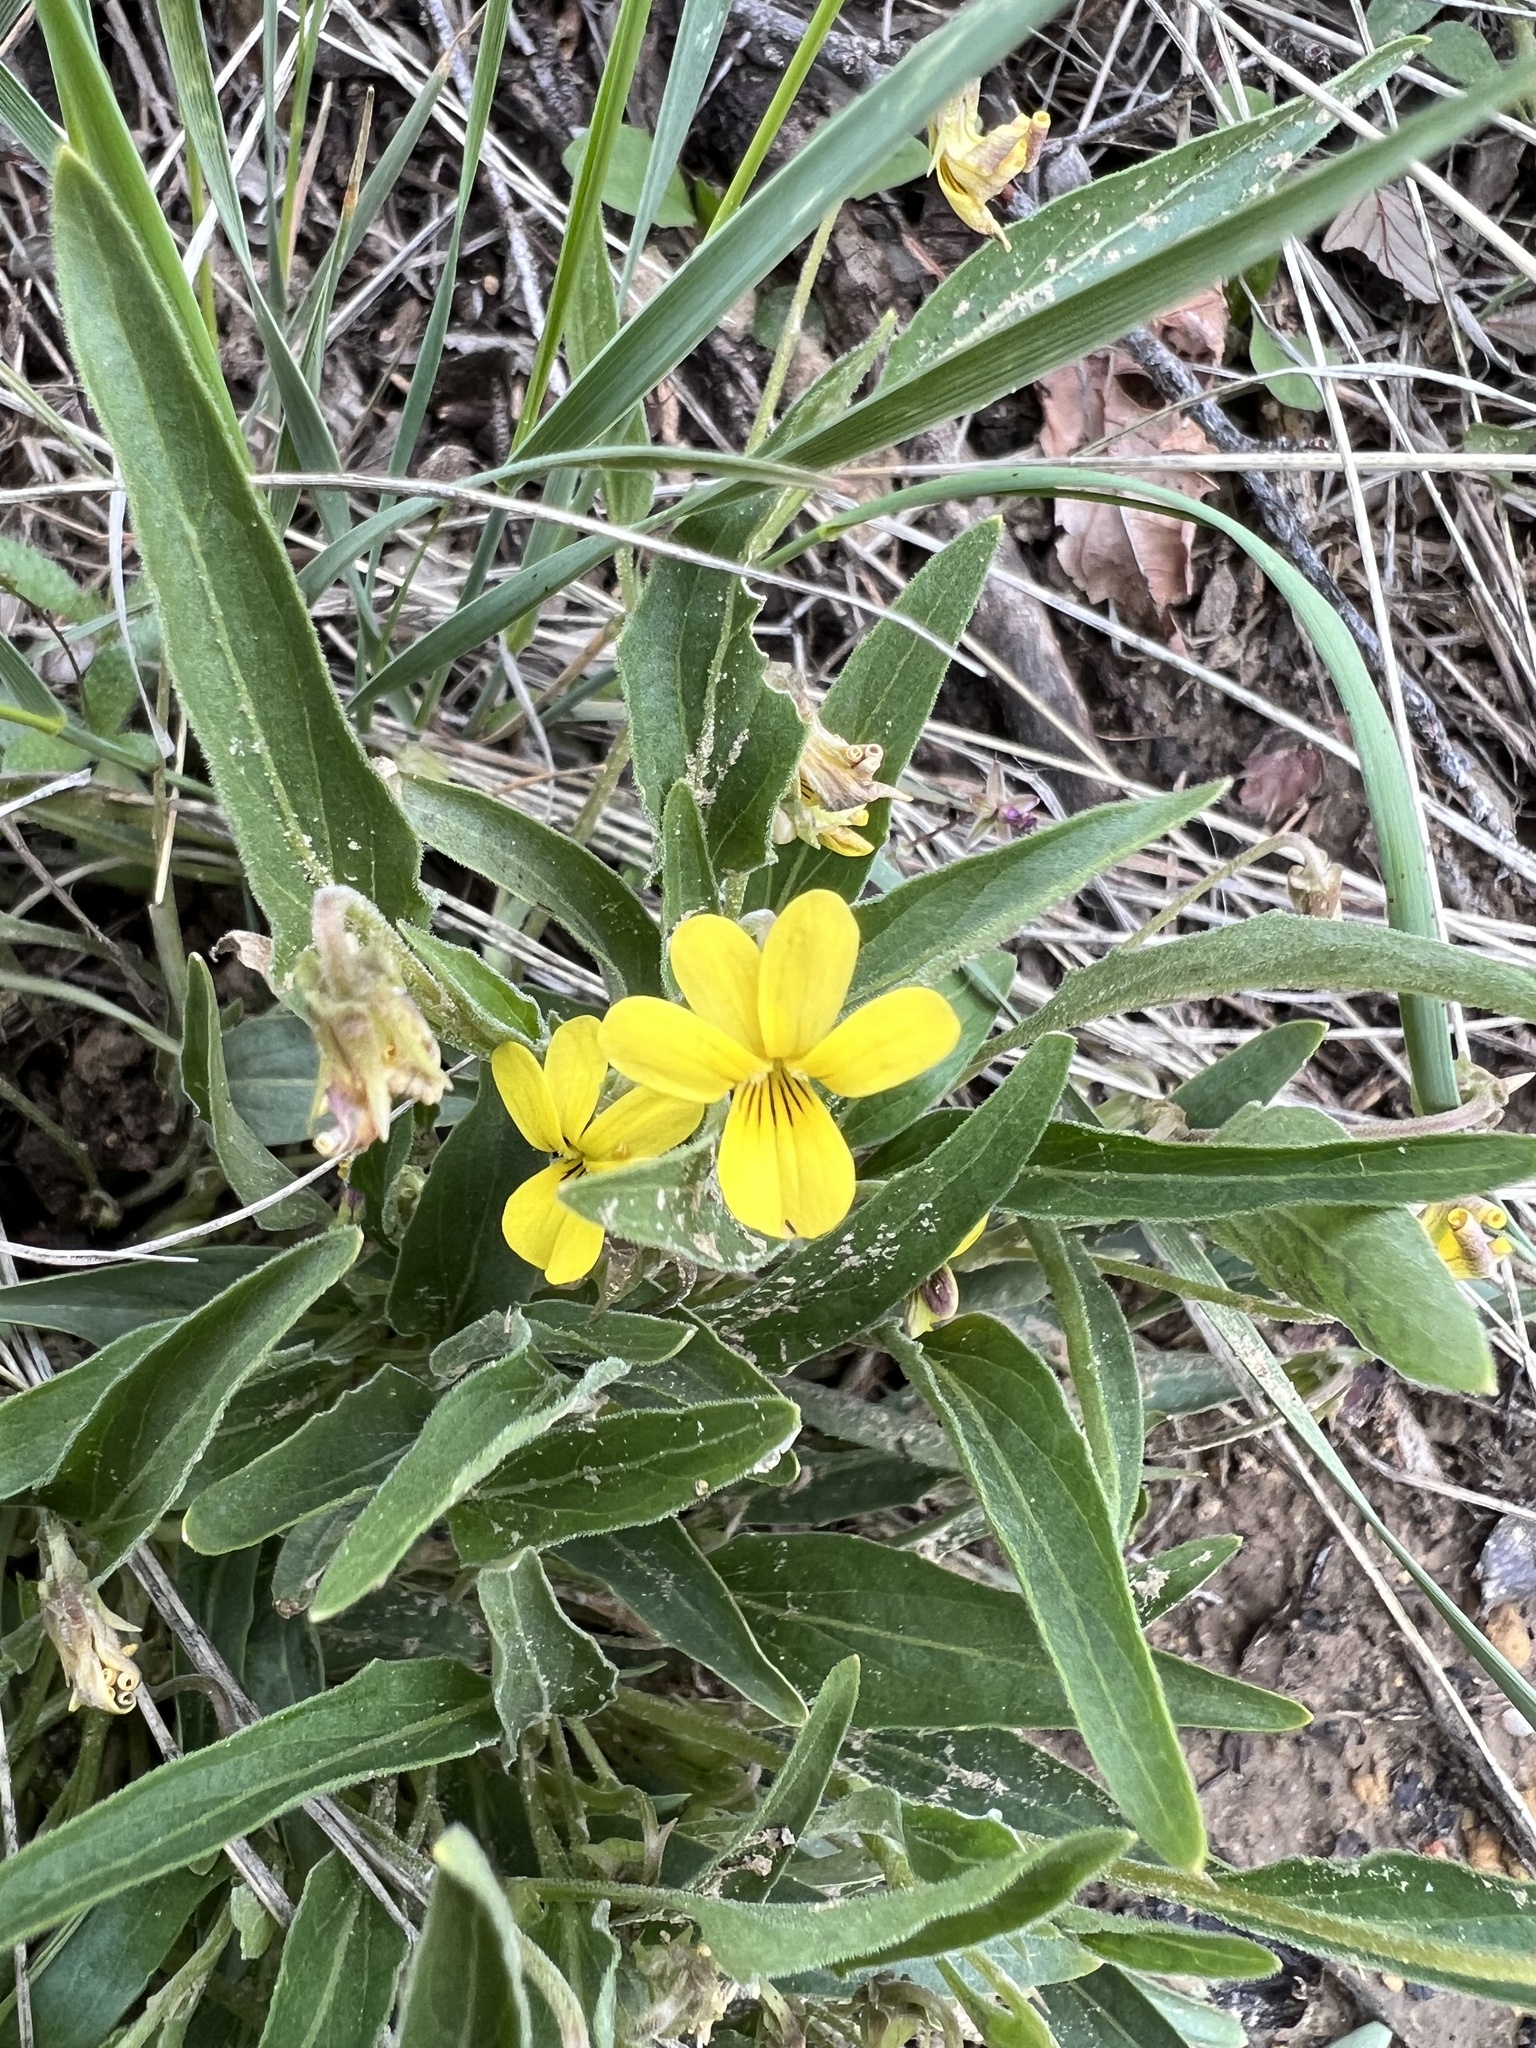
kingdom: Plantae
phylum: Tracheophyta
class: Magnoliopsida
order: Malpighiales
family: Violaceae
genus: Viola
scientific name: Viola nuttallii
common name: Yellow prairie violet
